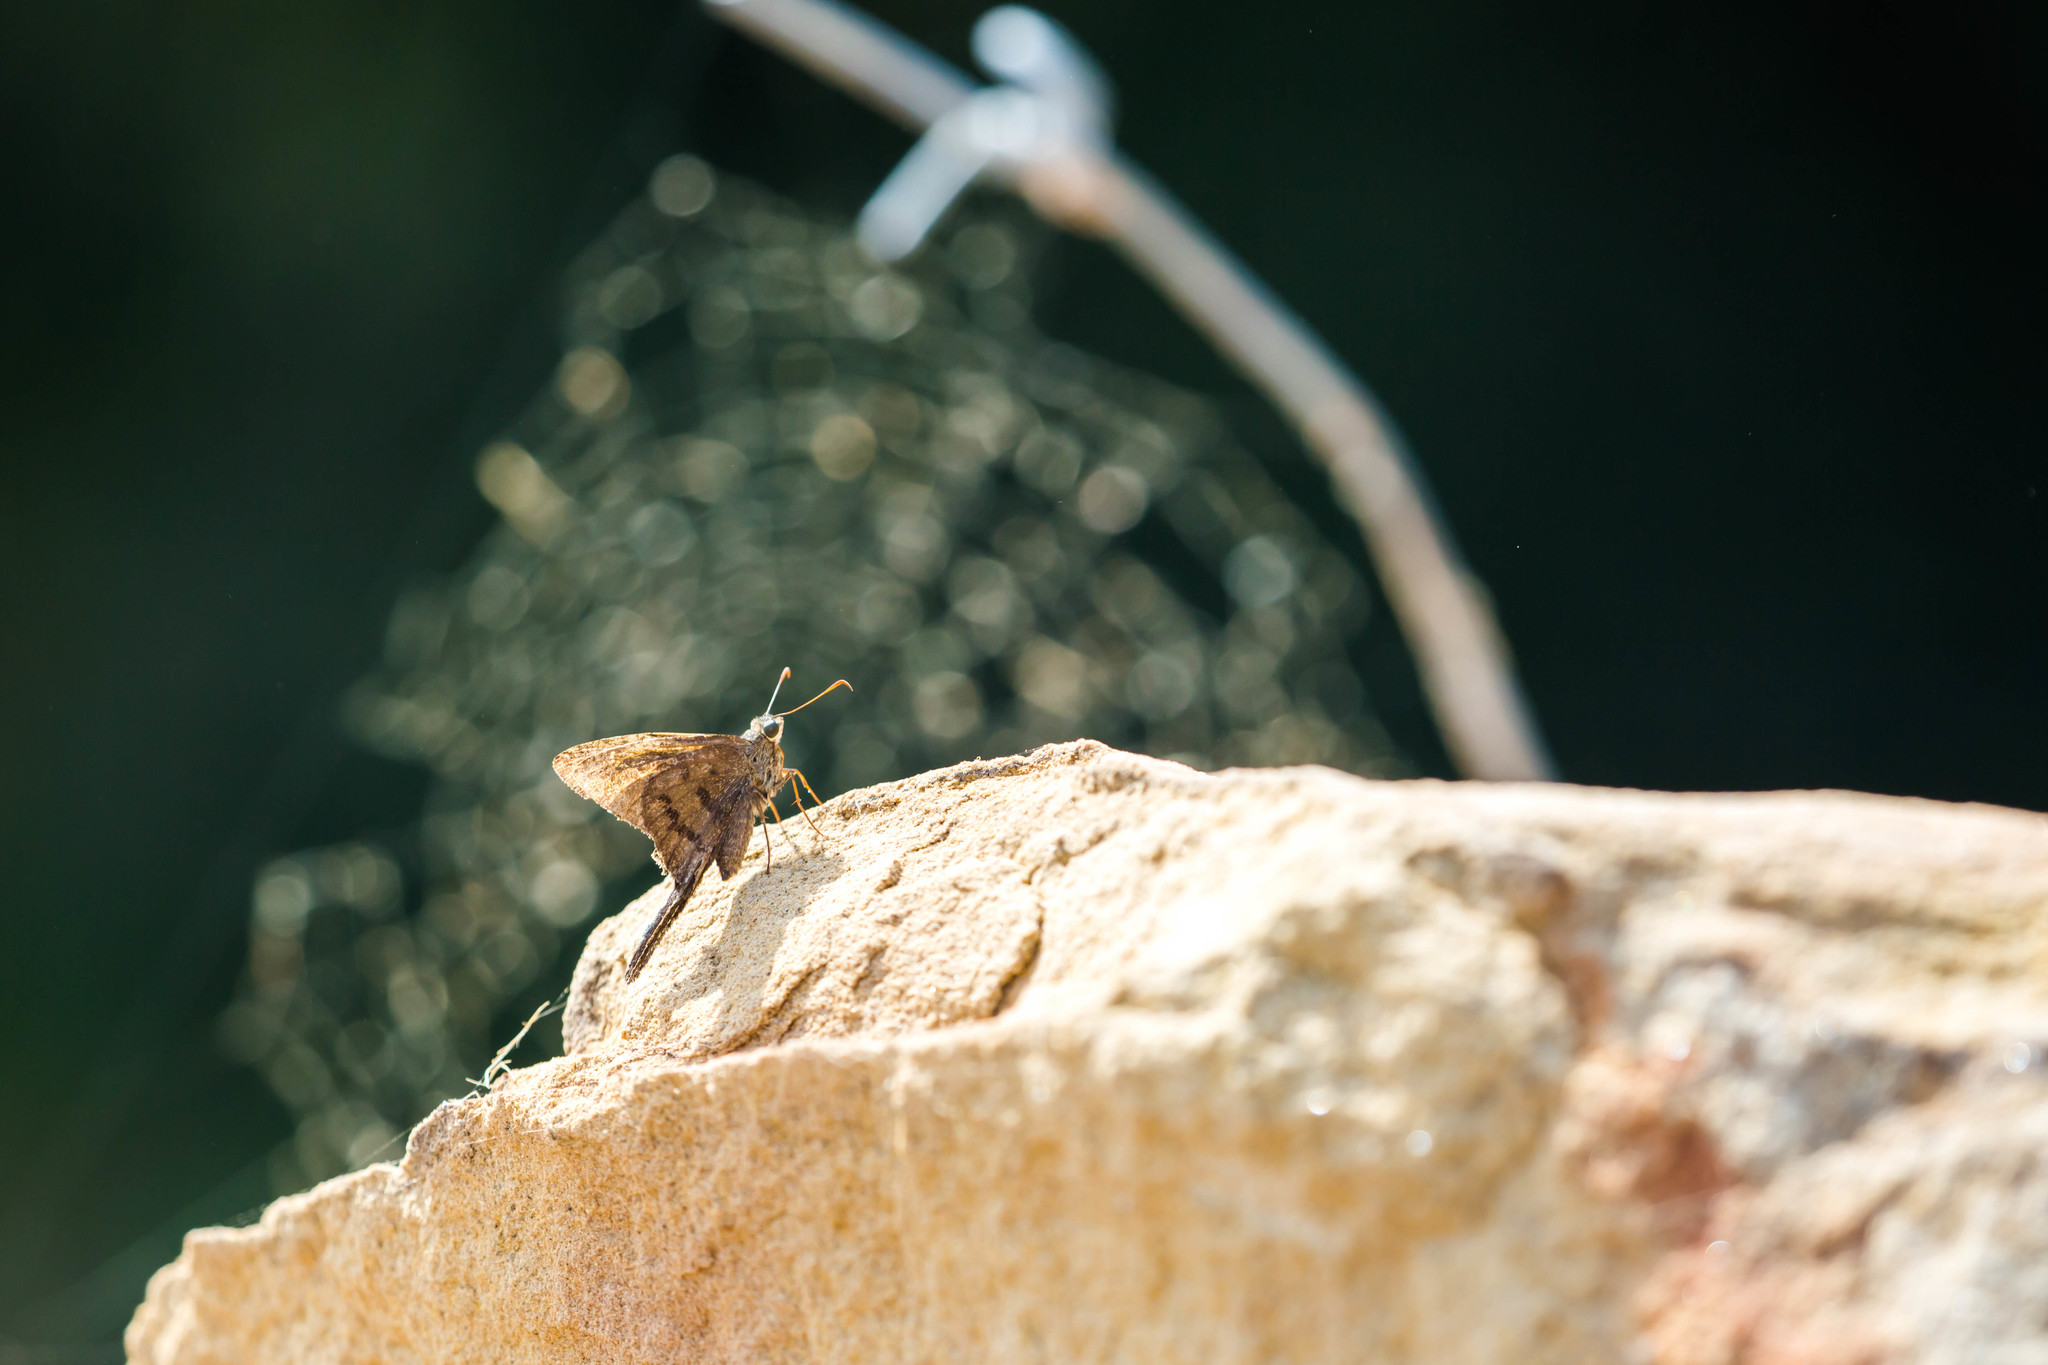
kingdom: Animalia
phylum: Arthropoda
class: Insecta
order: Lepidoptera
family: Hesperiidae
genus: Urbanus
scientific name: Urbanus procne
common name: Brown longtail
